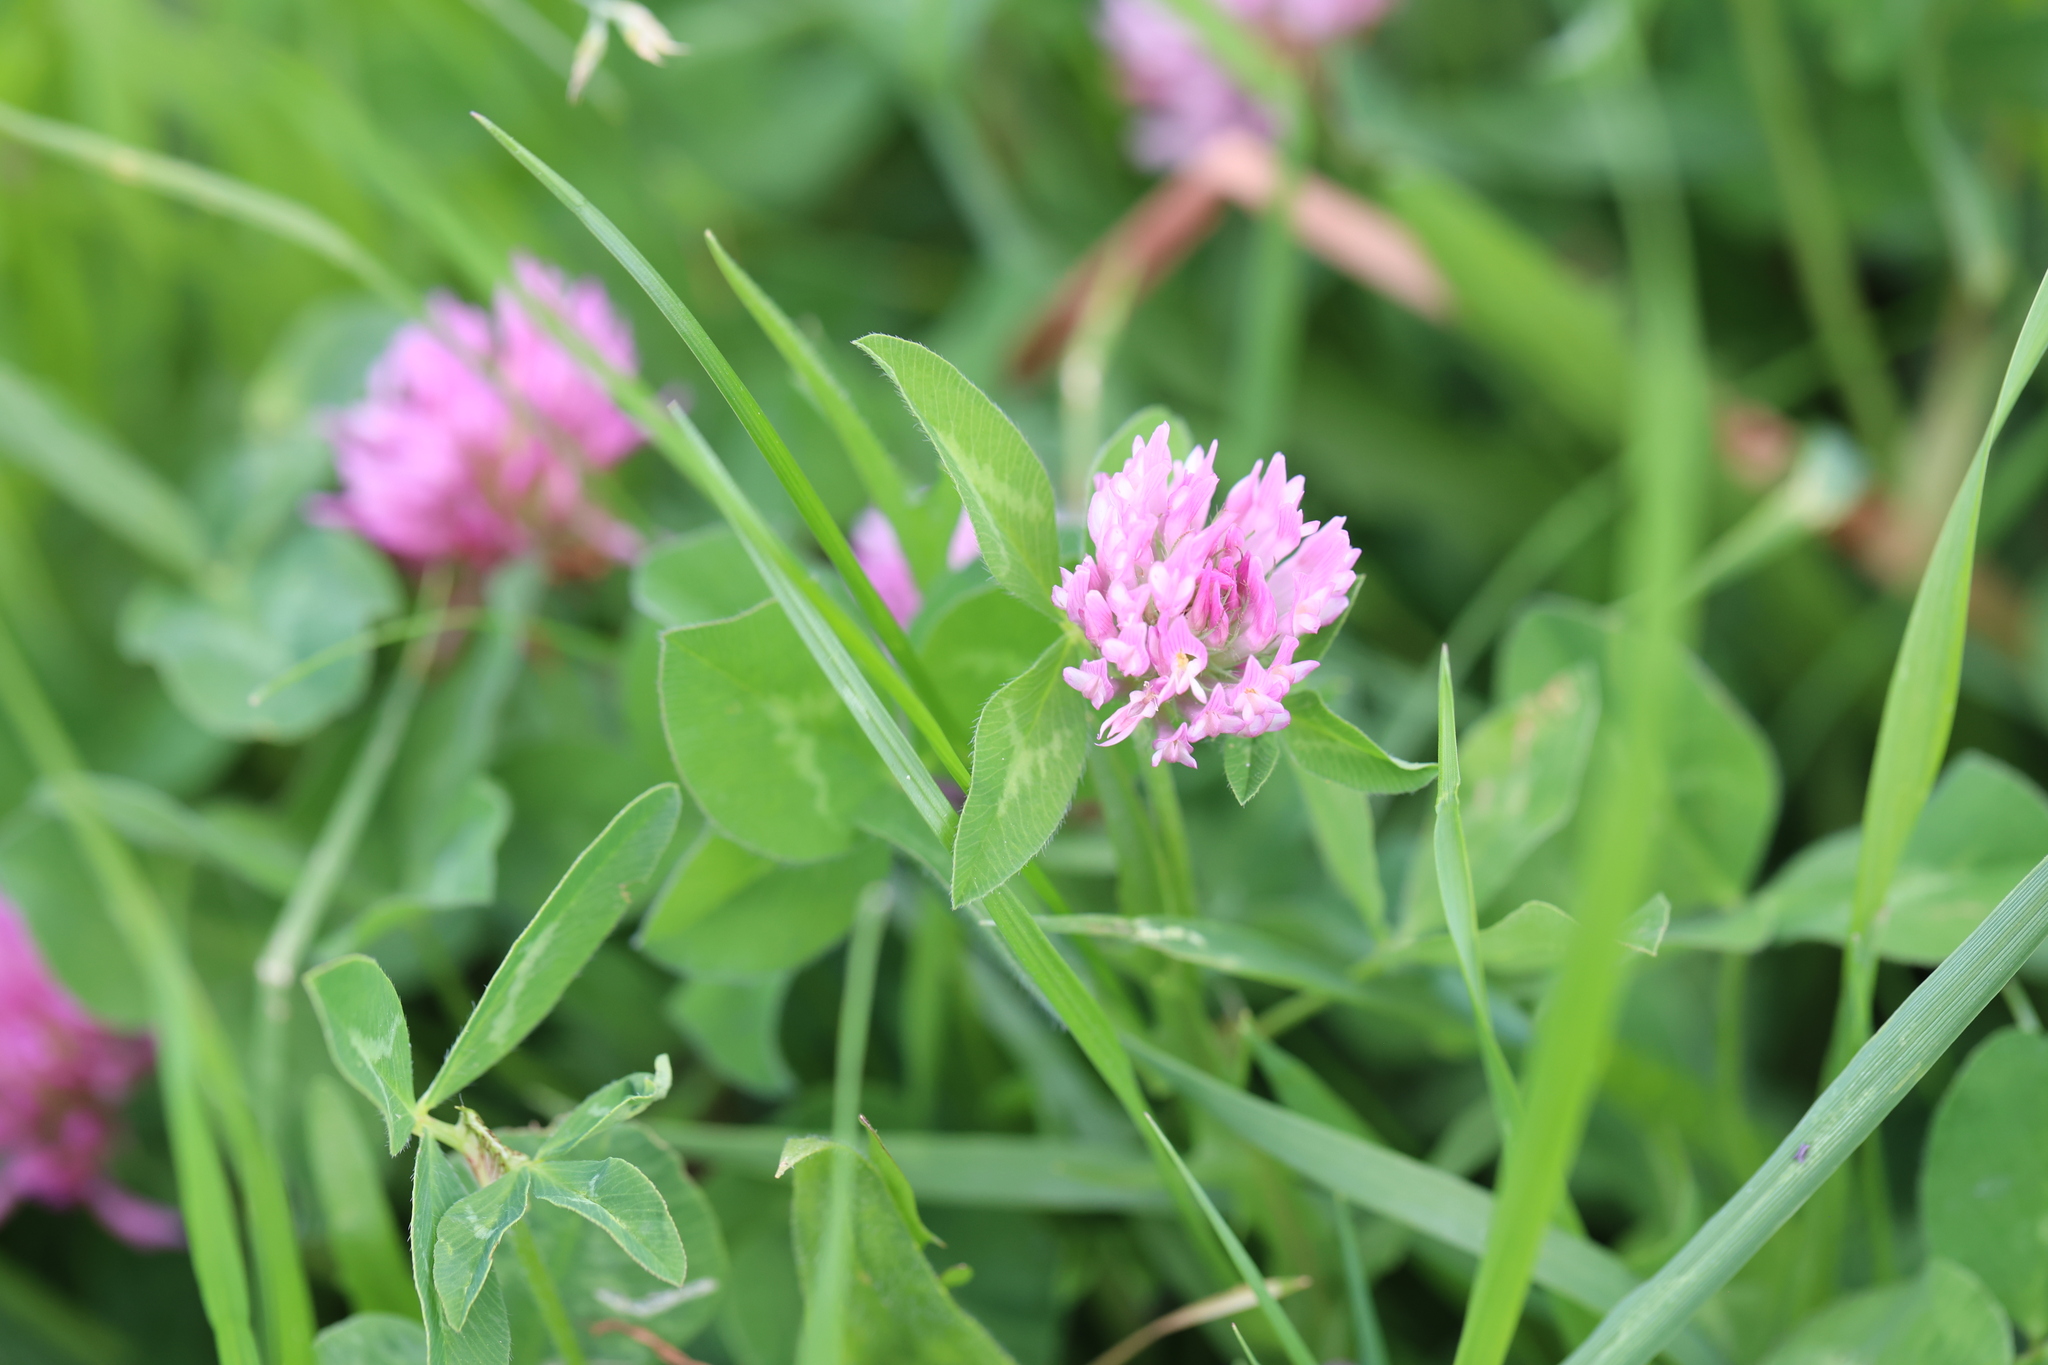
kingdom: Plantae
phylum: Tracheophyta
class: Magnoliopsida
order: Fabales
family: Fabaceae
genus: Trifolium
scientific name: Trifolium pratense
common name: Red clover
